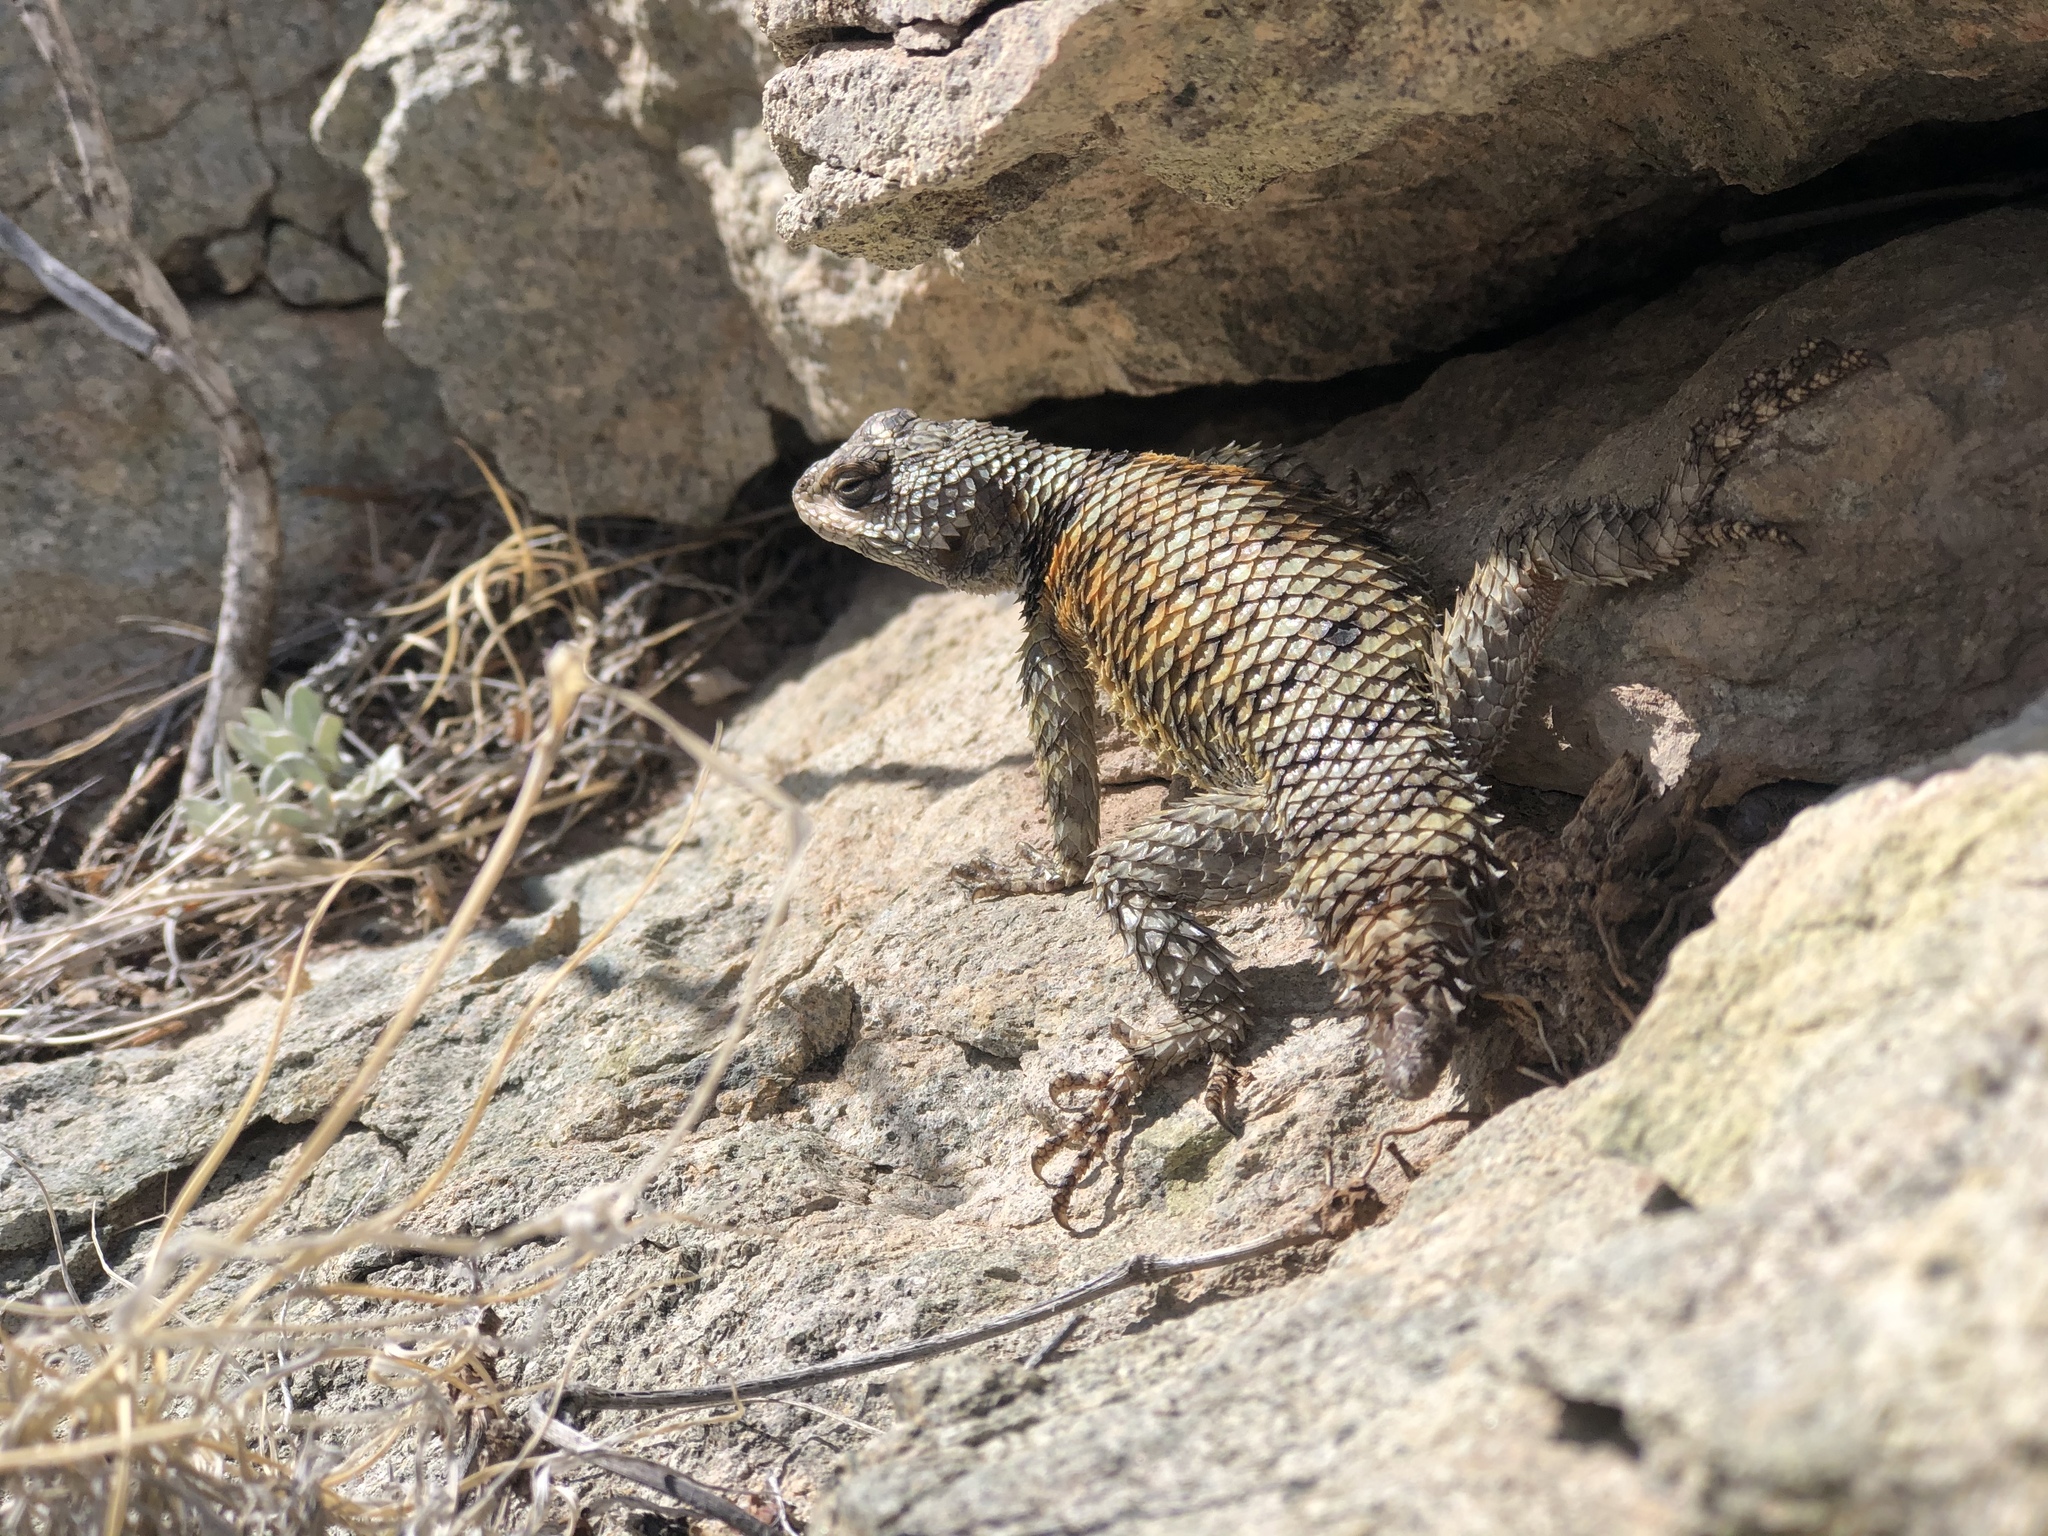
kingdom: Animalia
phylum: Chordata
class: Squamata
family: Phrynosomatidae
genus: Sceloporus
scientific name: Sceloporus poinsettii
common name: Crevice spiny lizard
